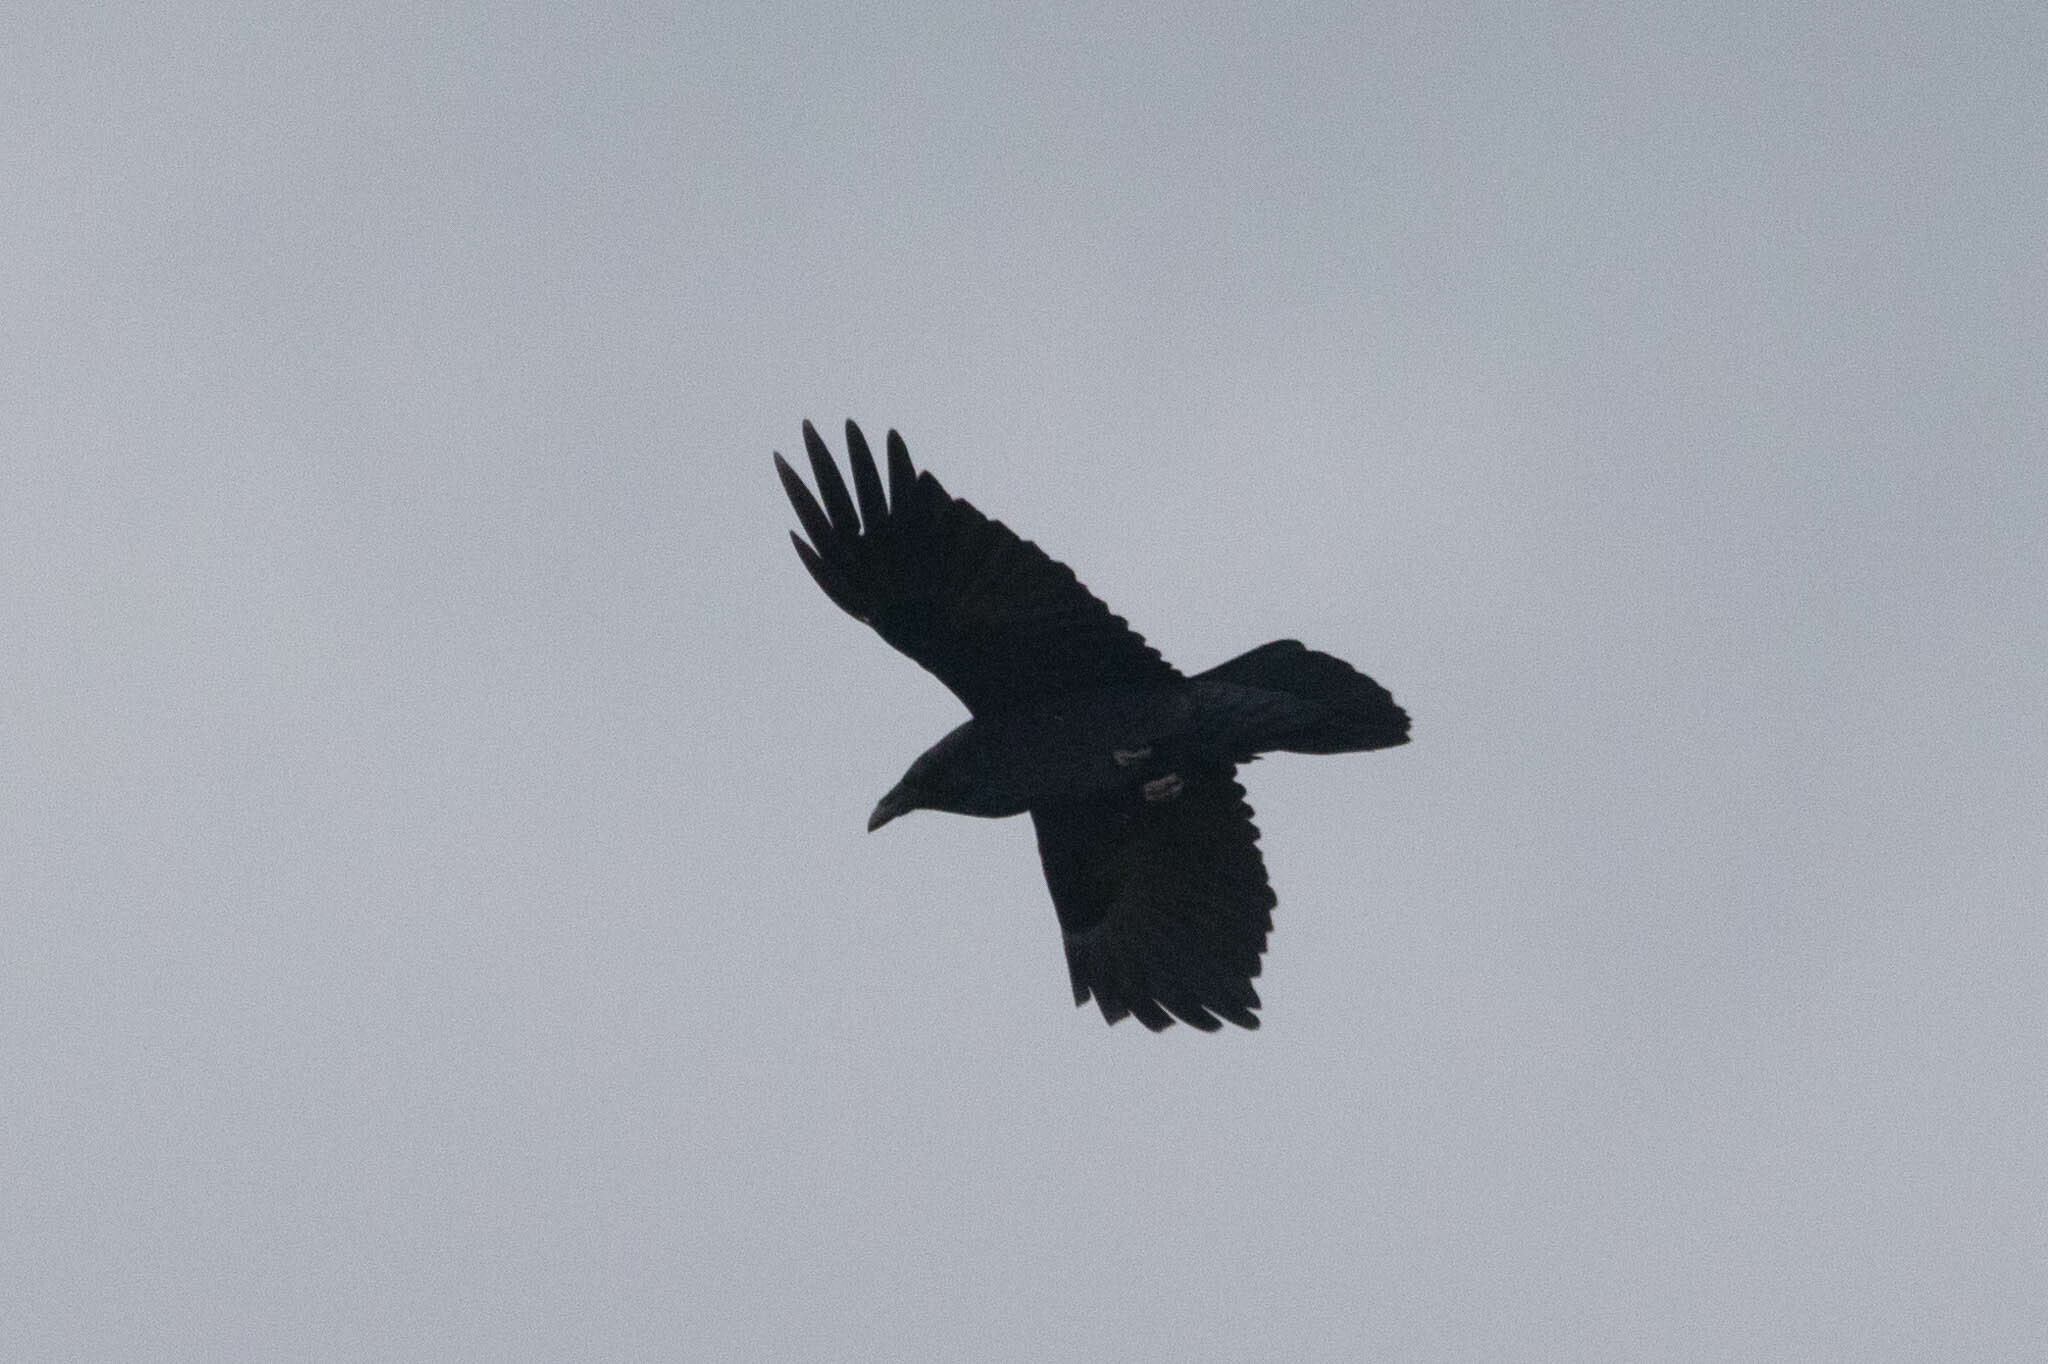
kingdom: Animalia
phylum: Chordata
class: Aves
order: Passeriformes
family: Corvidae
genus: Corvus
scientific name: Corvus brachyrhynchos
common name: American crow
